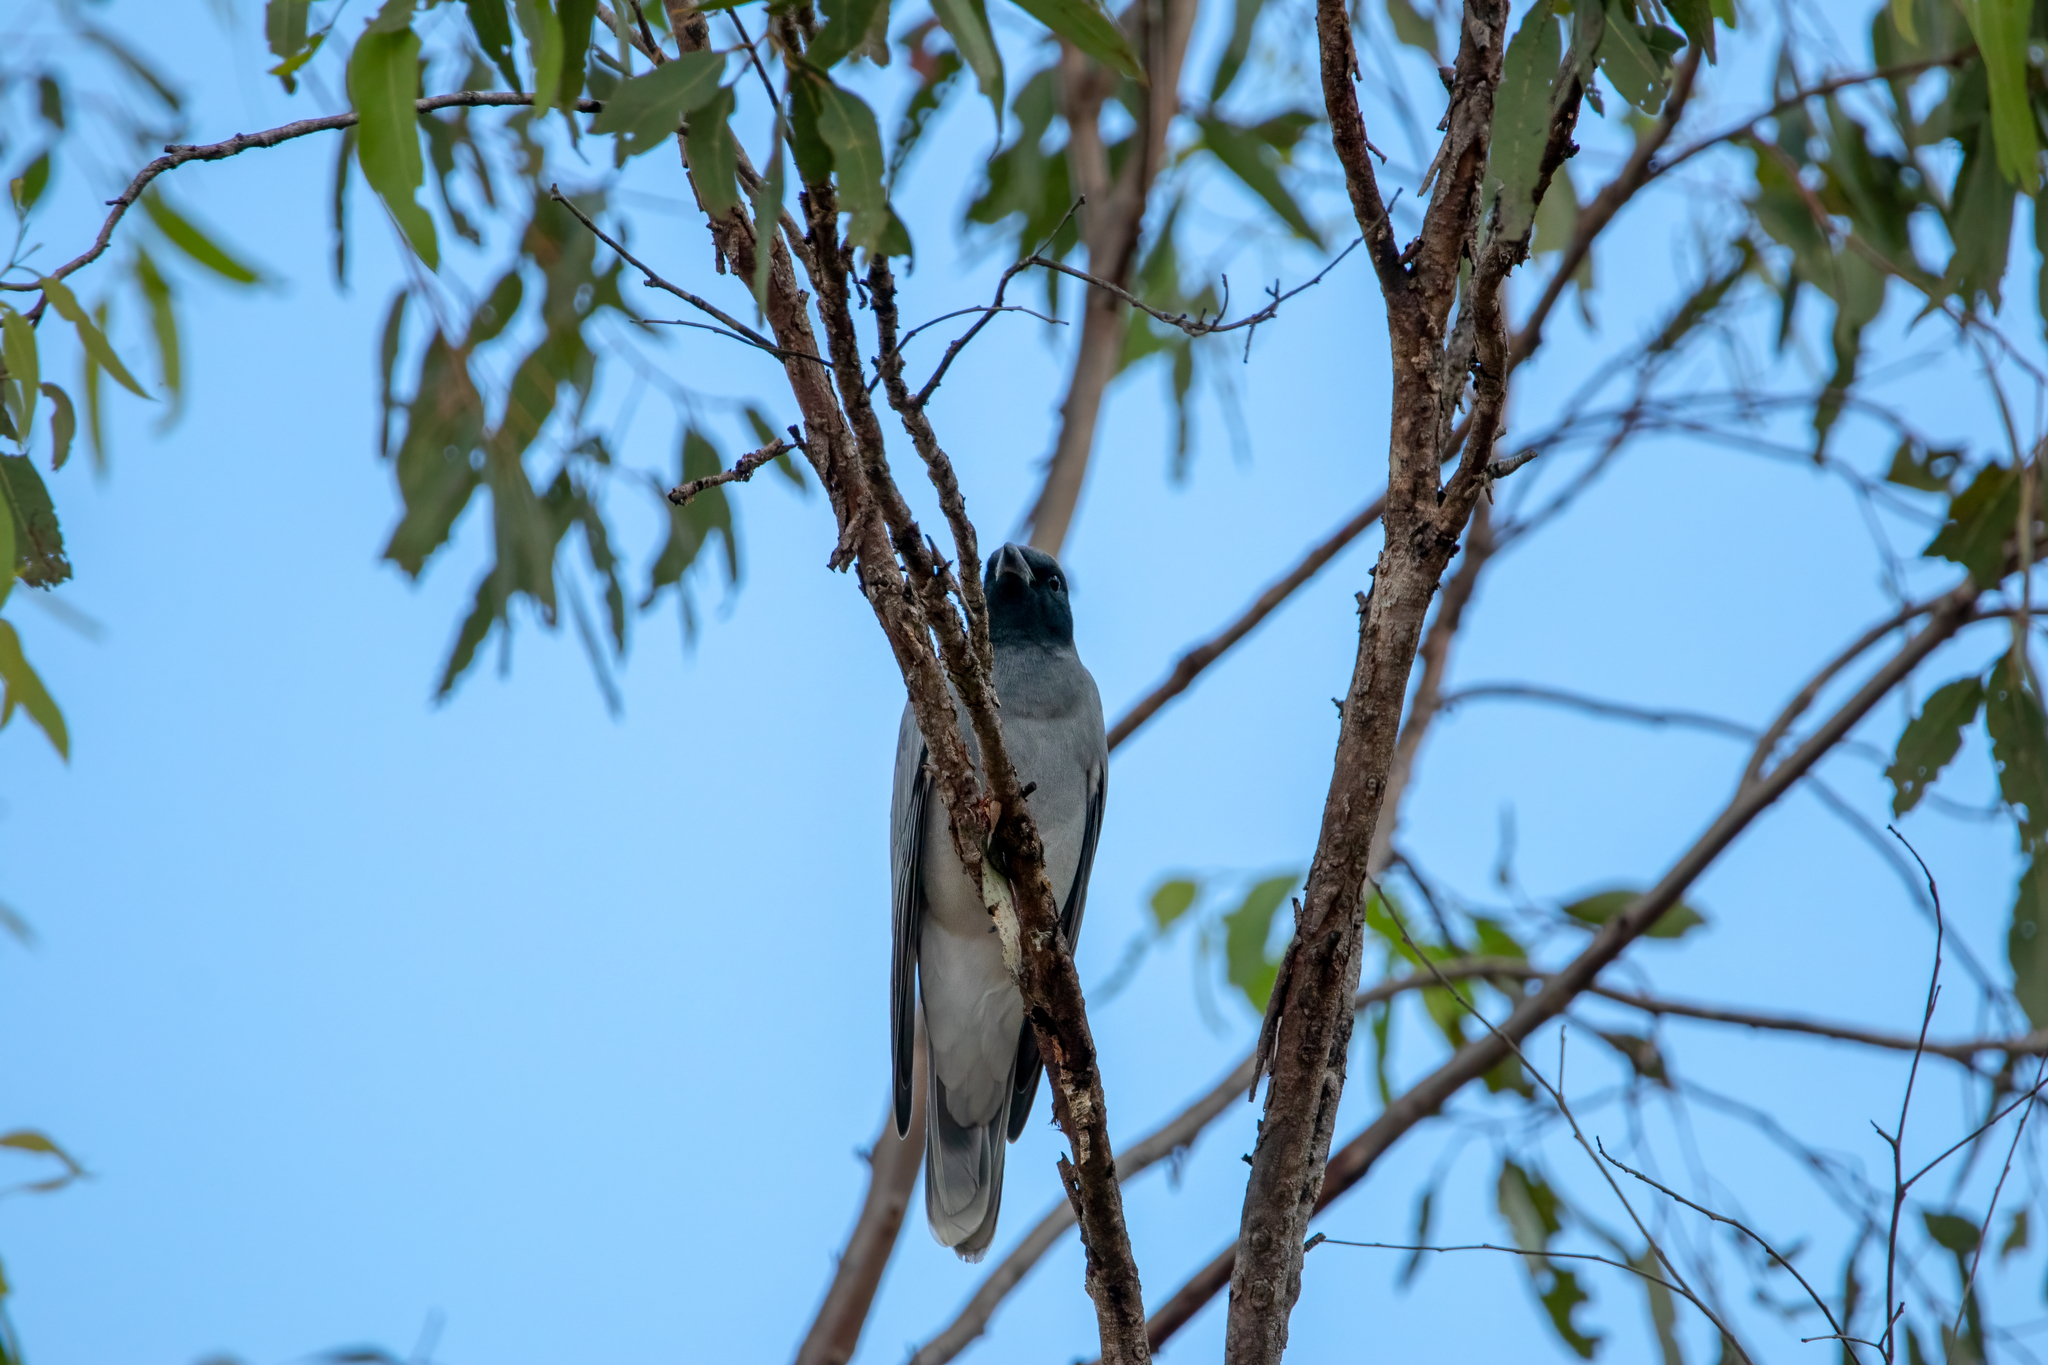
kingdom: Animalia
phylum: Chordata
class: Aves
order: Passeriformes
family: Campephagidae
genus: Coracina
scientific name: Coracina novaehollandiae
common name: Black-faced cuckooshrike
